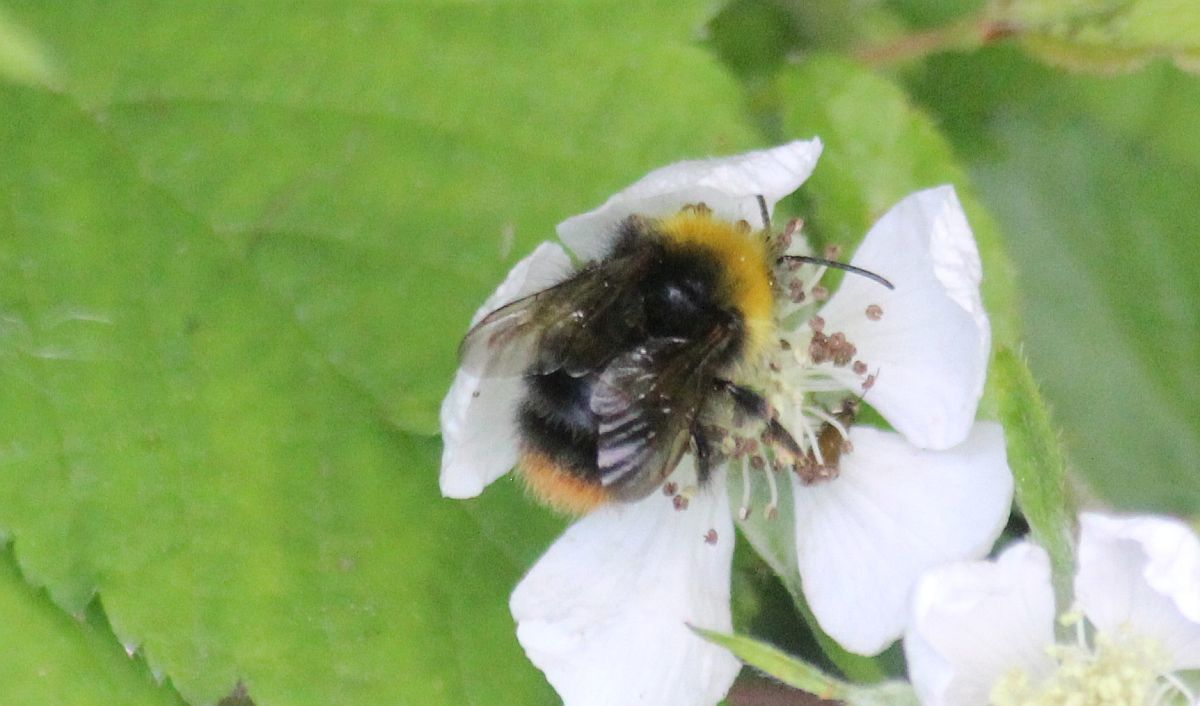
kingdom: Animalia
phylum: Arthropoda
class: Insecta
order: Hymenoptera
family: Apidae
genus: Bombus
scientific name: Bombus pratorum
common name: Early humble-bee
